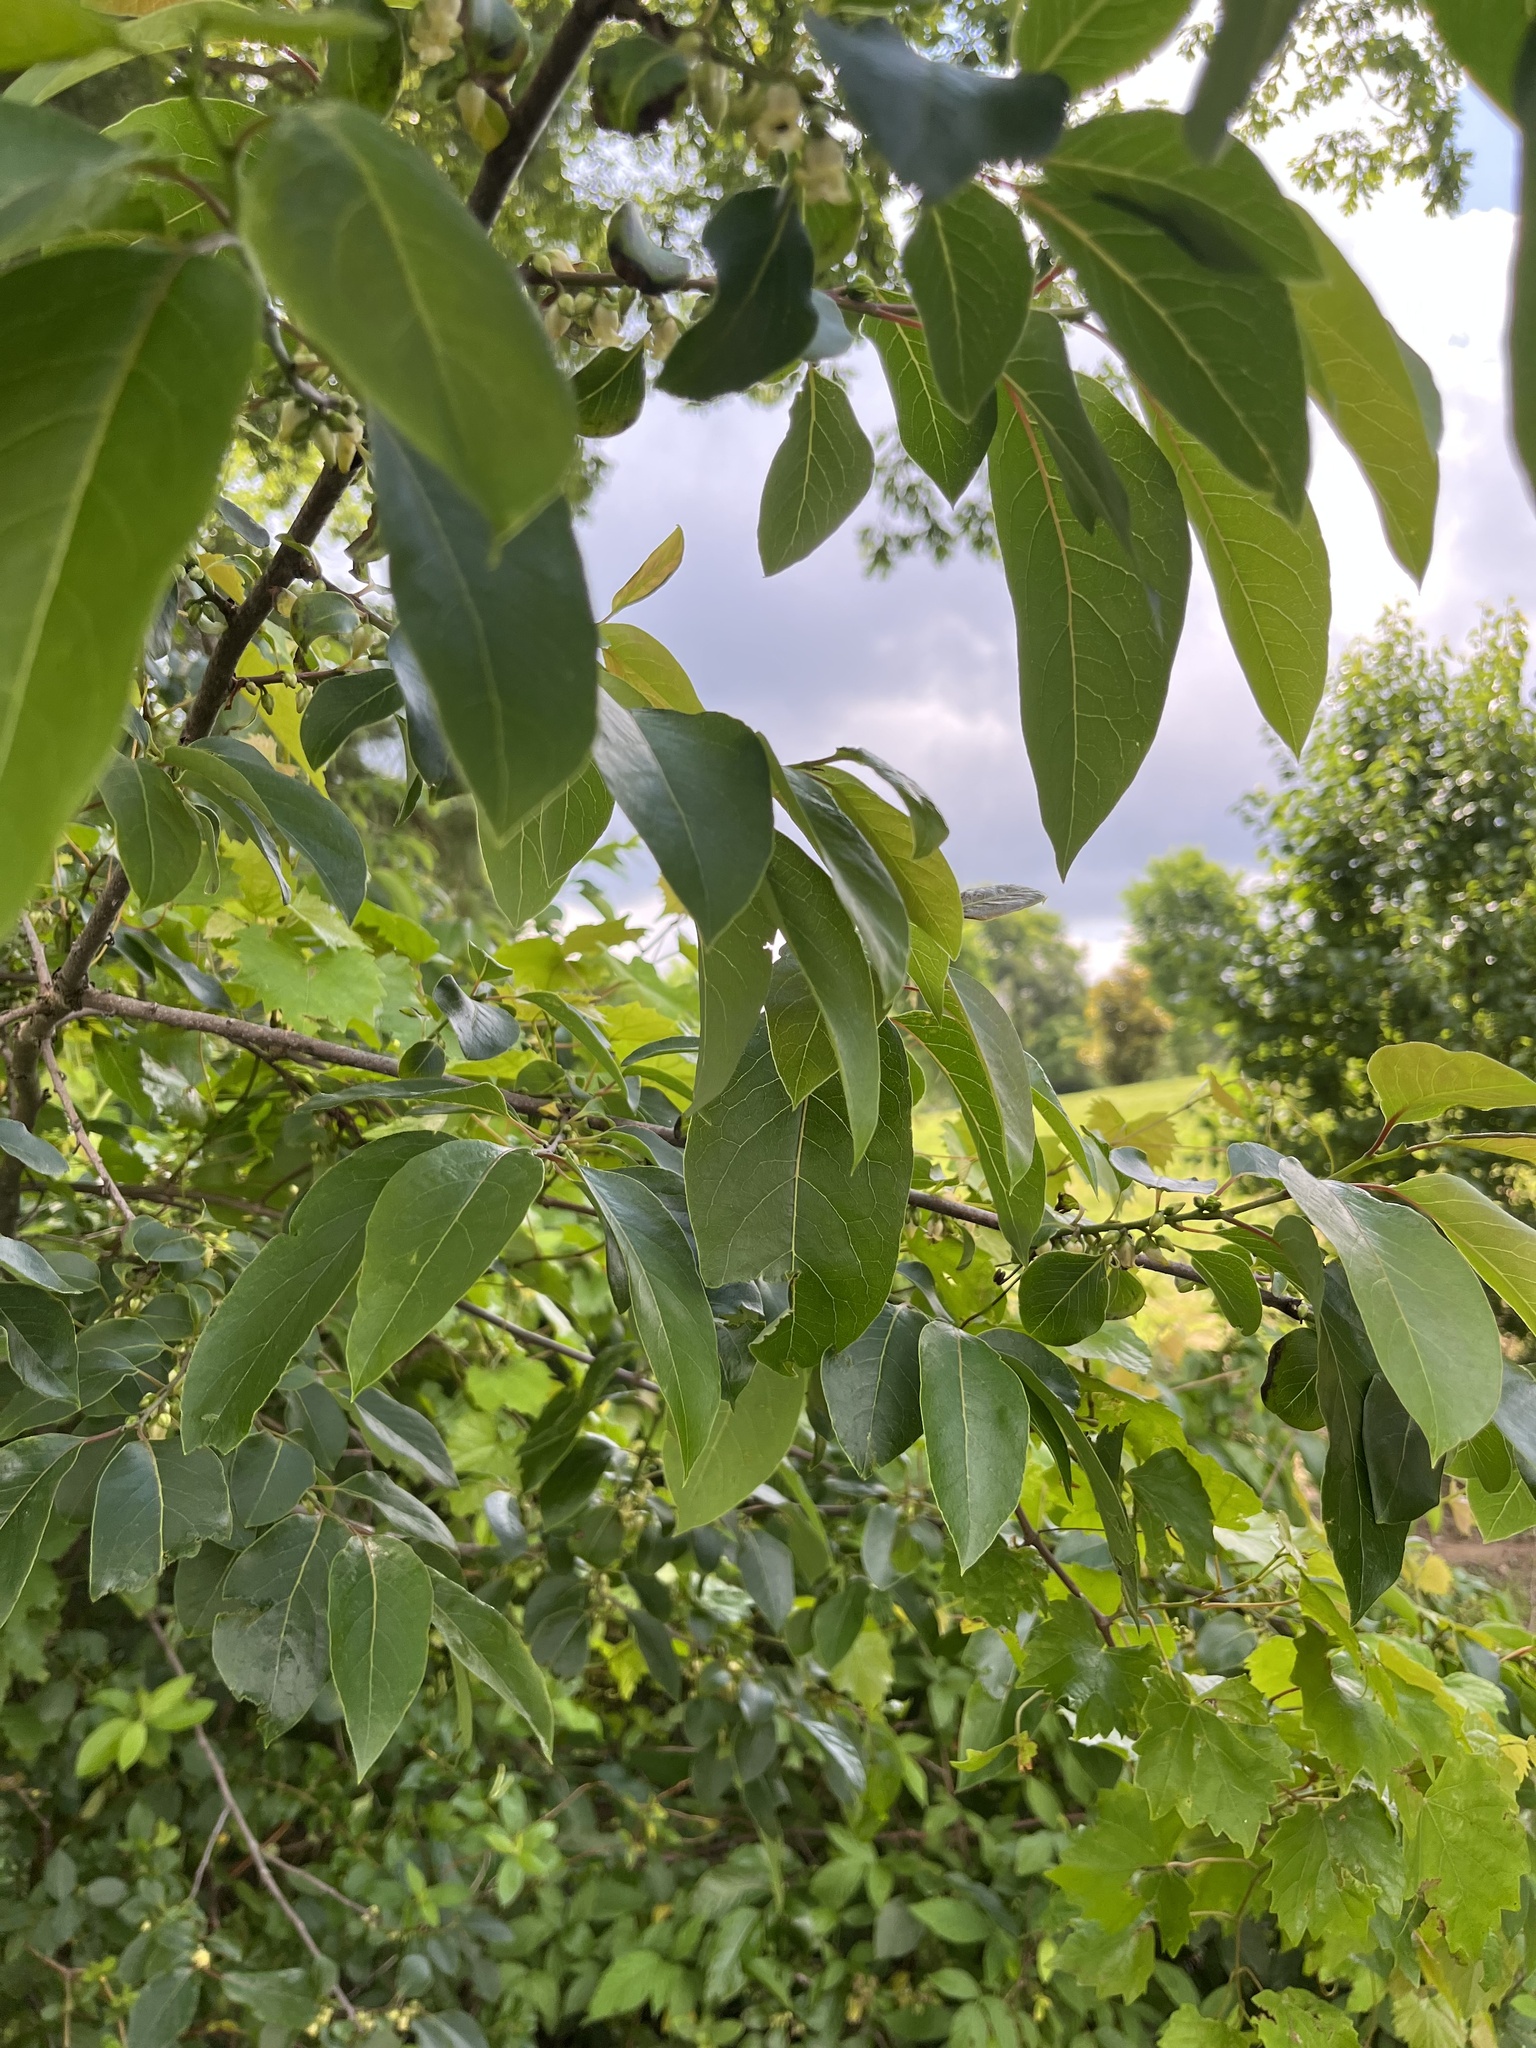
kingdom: Plantae
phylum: Tracheophyta
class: Magnoliopsida
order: Ericales
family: Ebenaceae
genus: Diospyros
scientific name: Diospyros virginiana
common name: Persimmon
